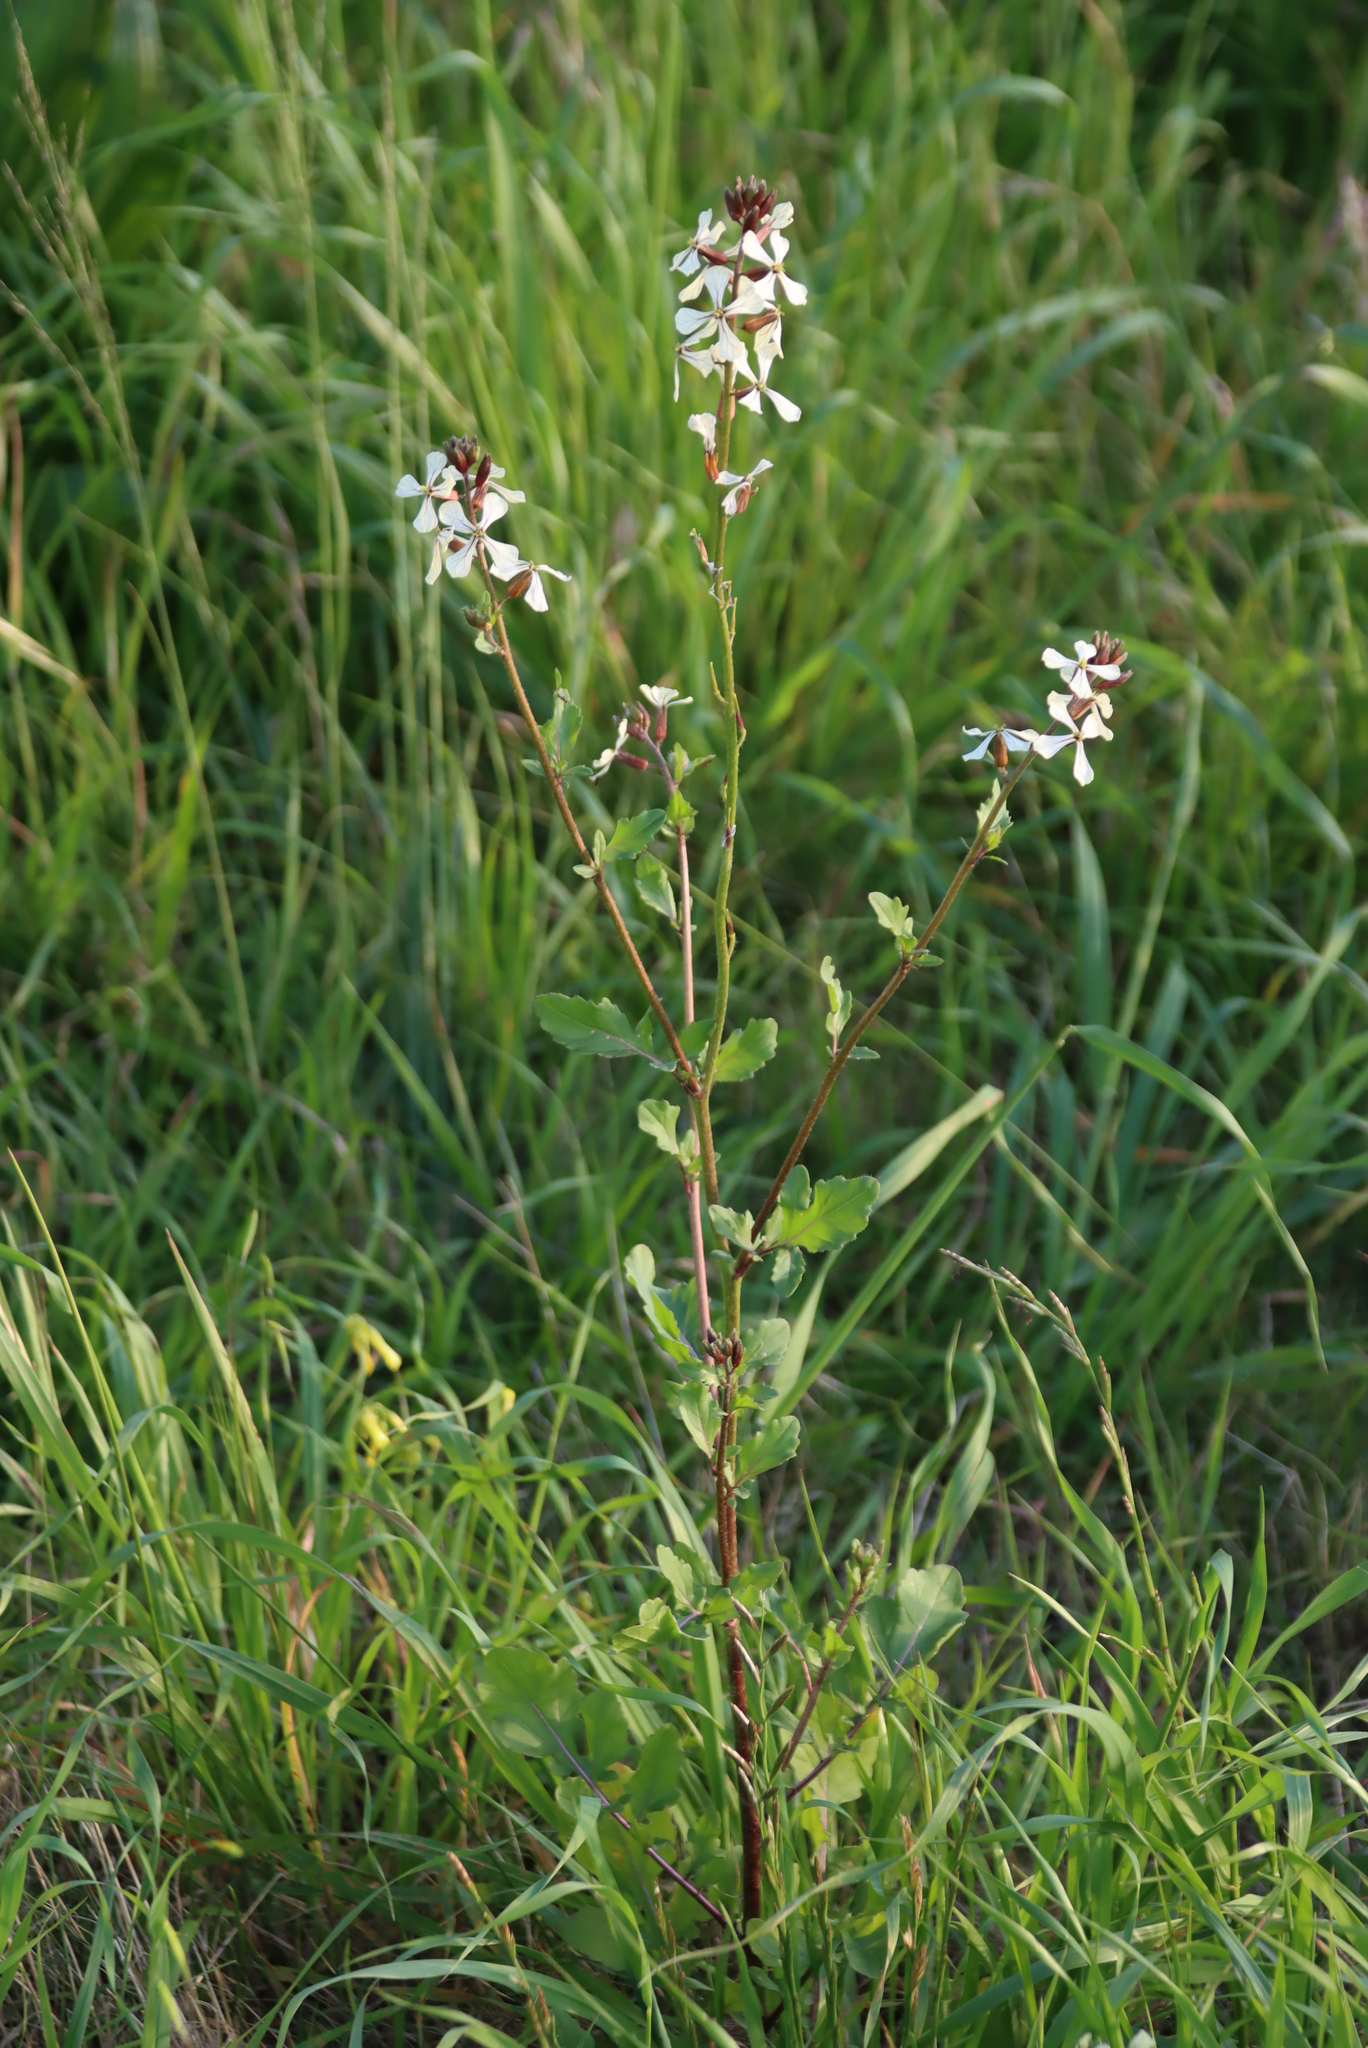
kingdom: Plantae
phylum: Tracheophyta
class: Magnoliopsida
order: Brassicales
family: Brassicaceae
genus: Eruca
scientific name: Eruca vesicaria
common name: Garden rocket
